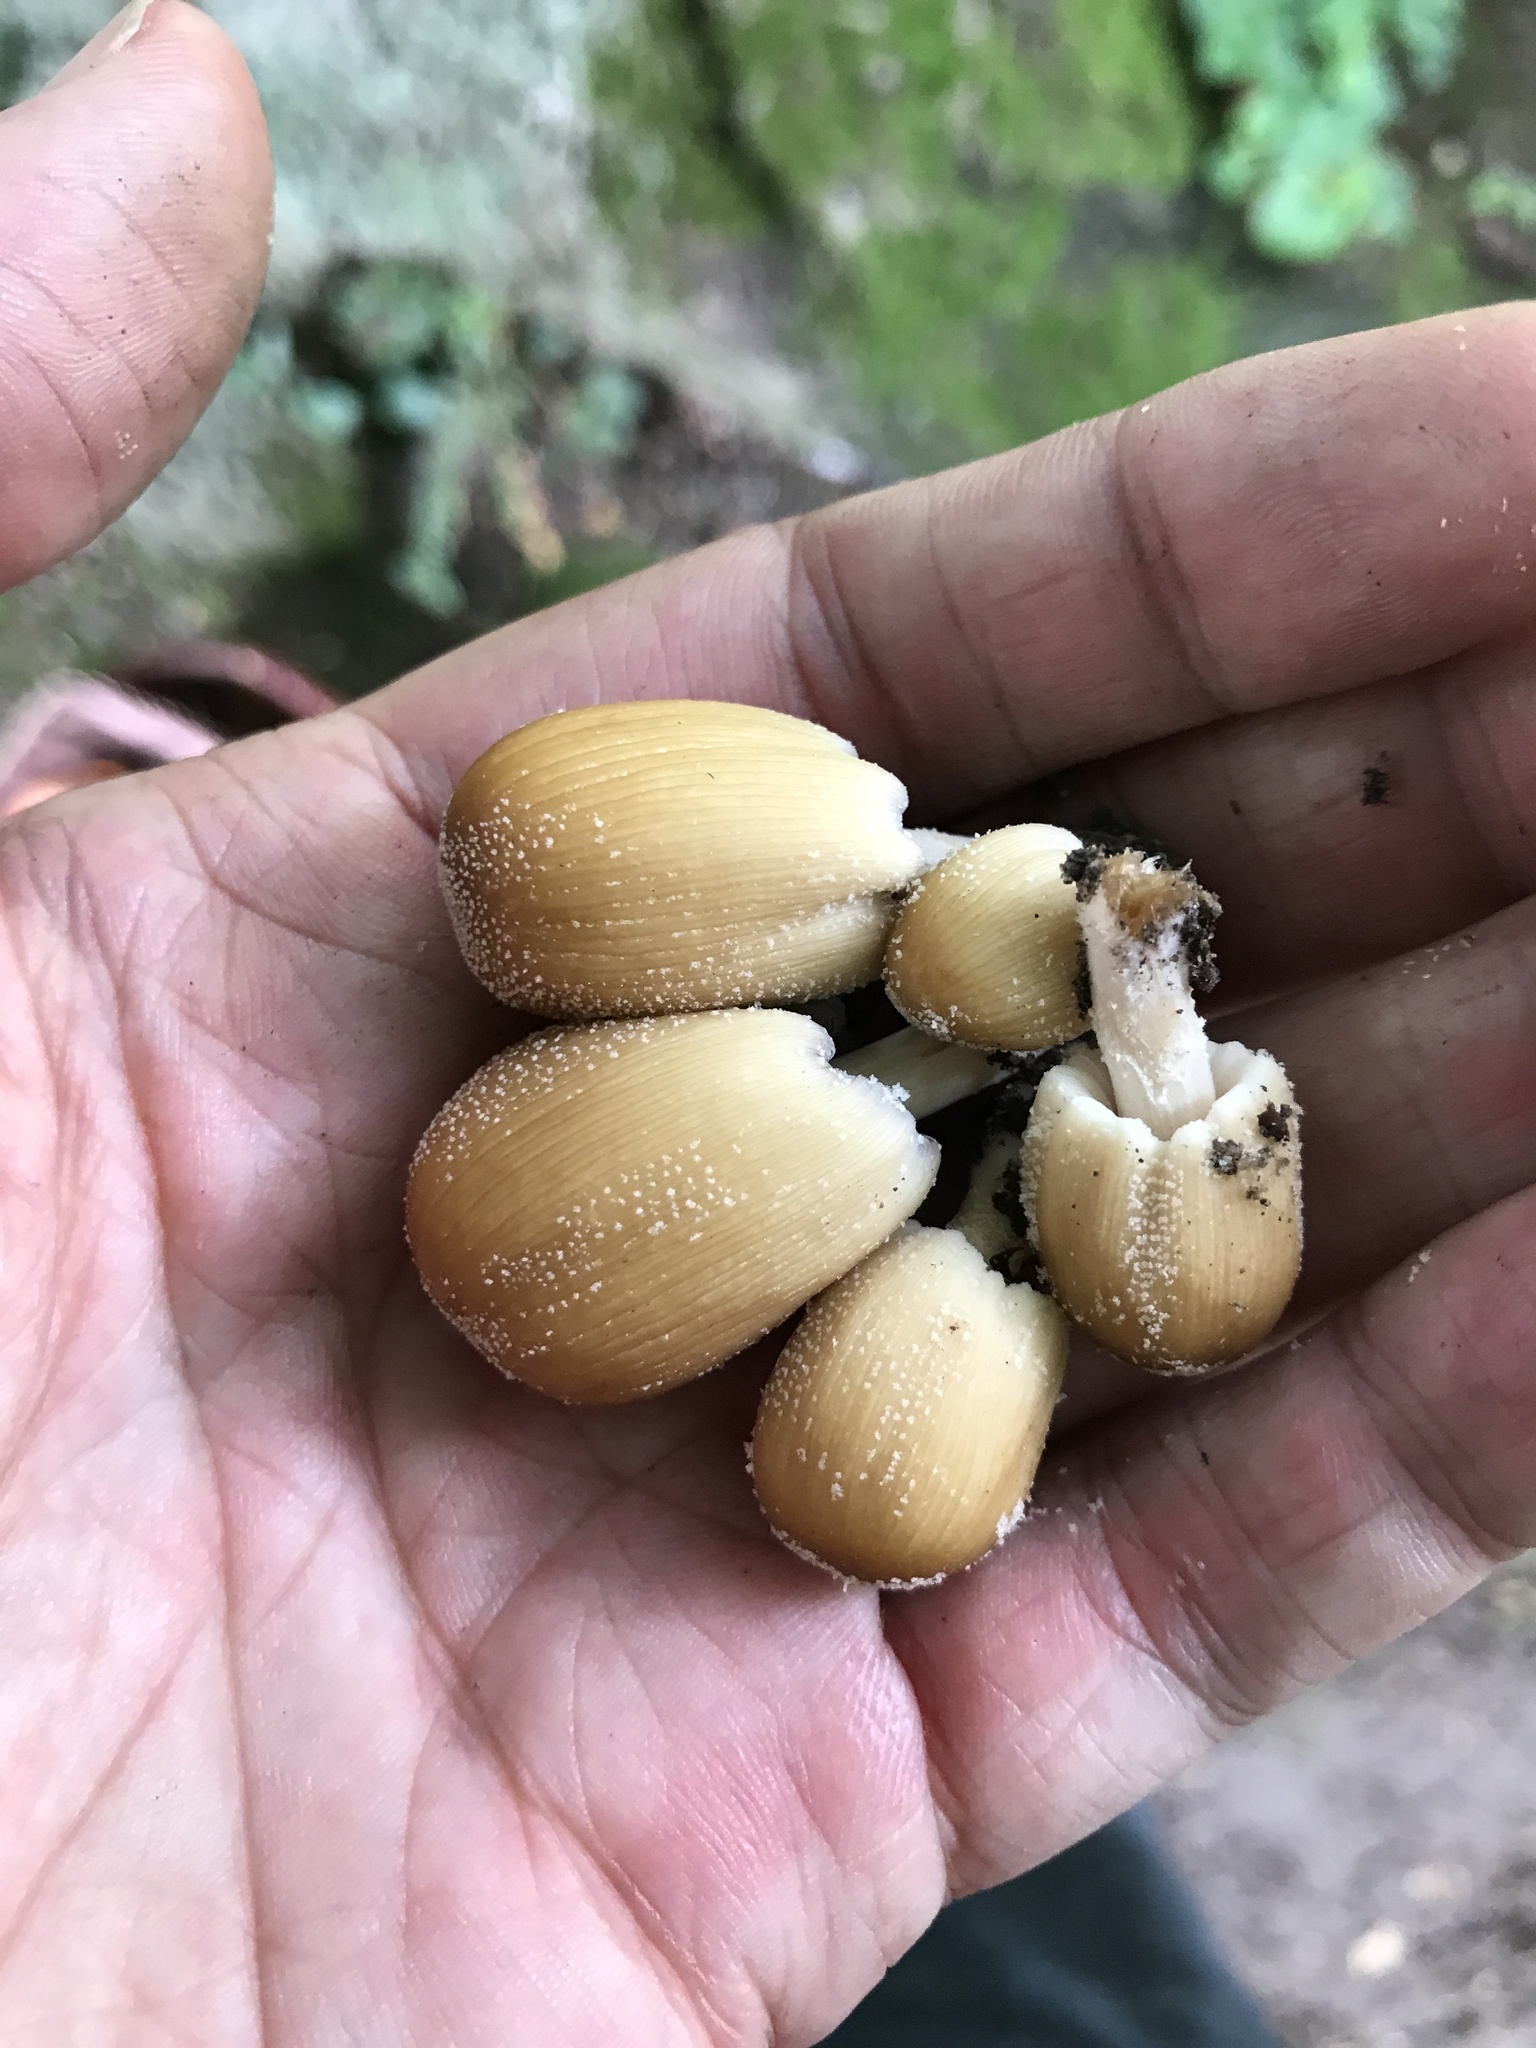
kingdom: Fungi
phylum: Basidiomycota
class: Agaricomycetes
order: Agaricales
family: Psathyrellaceae
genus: Coprinellus
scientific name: Coprinellus micaceus
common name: Glistening ink-cap
